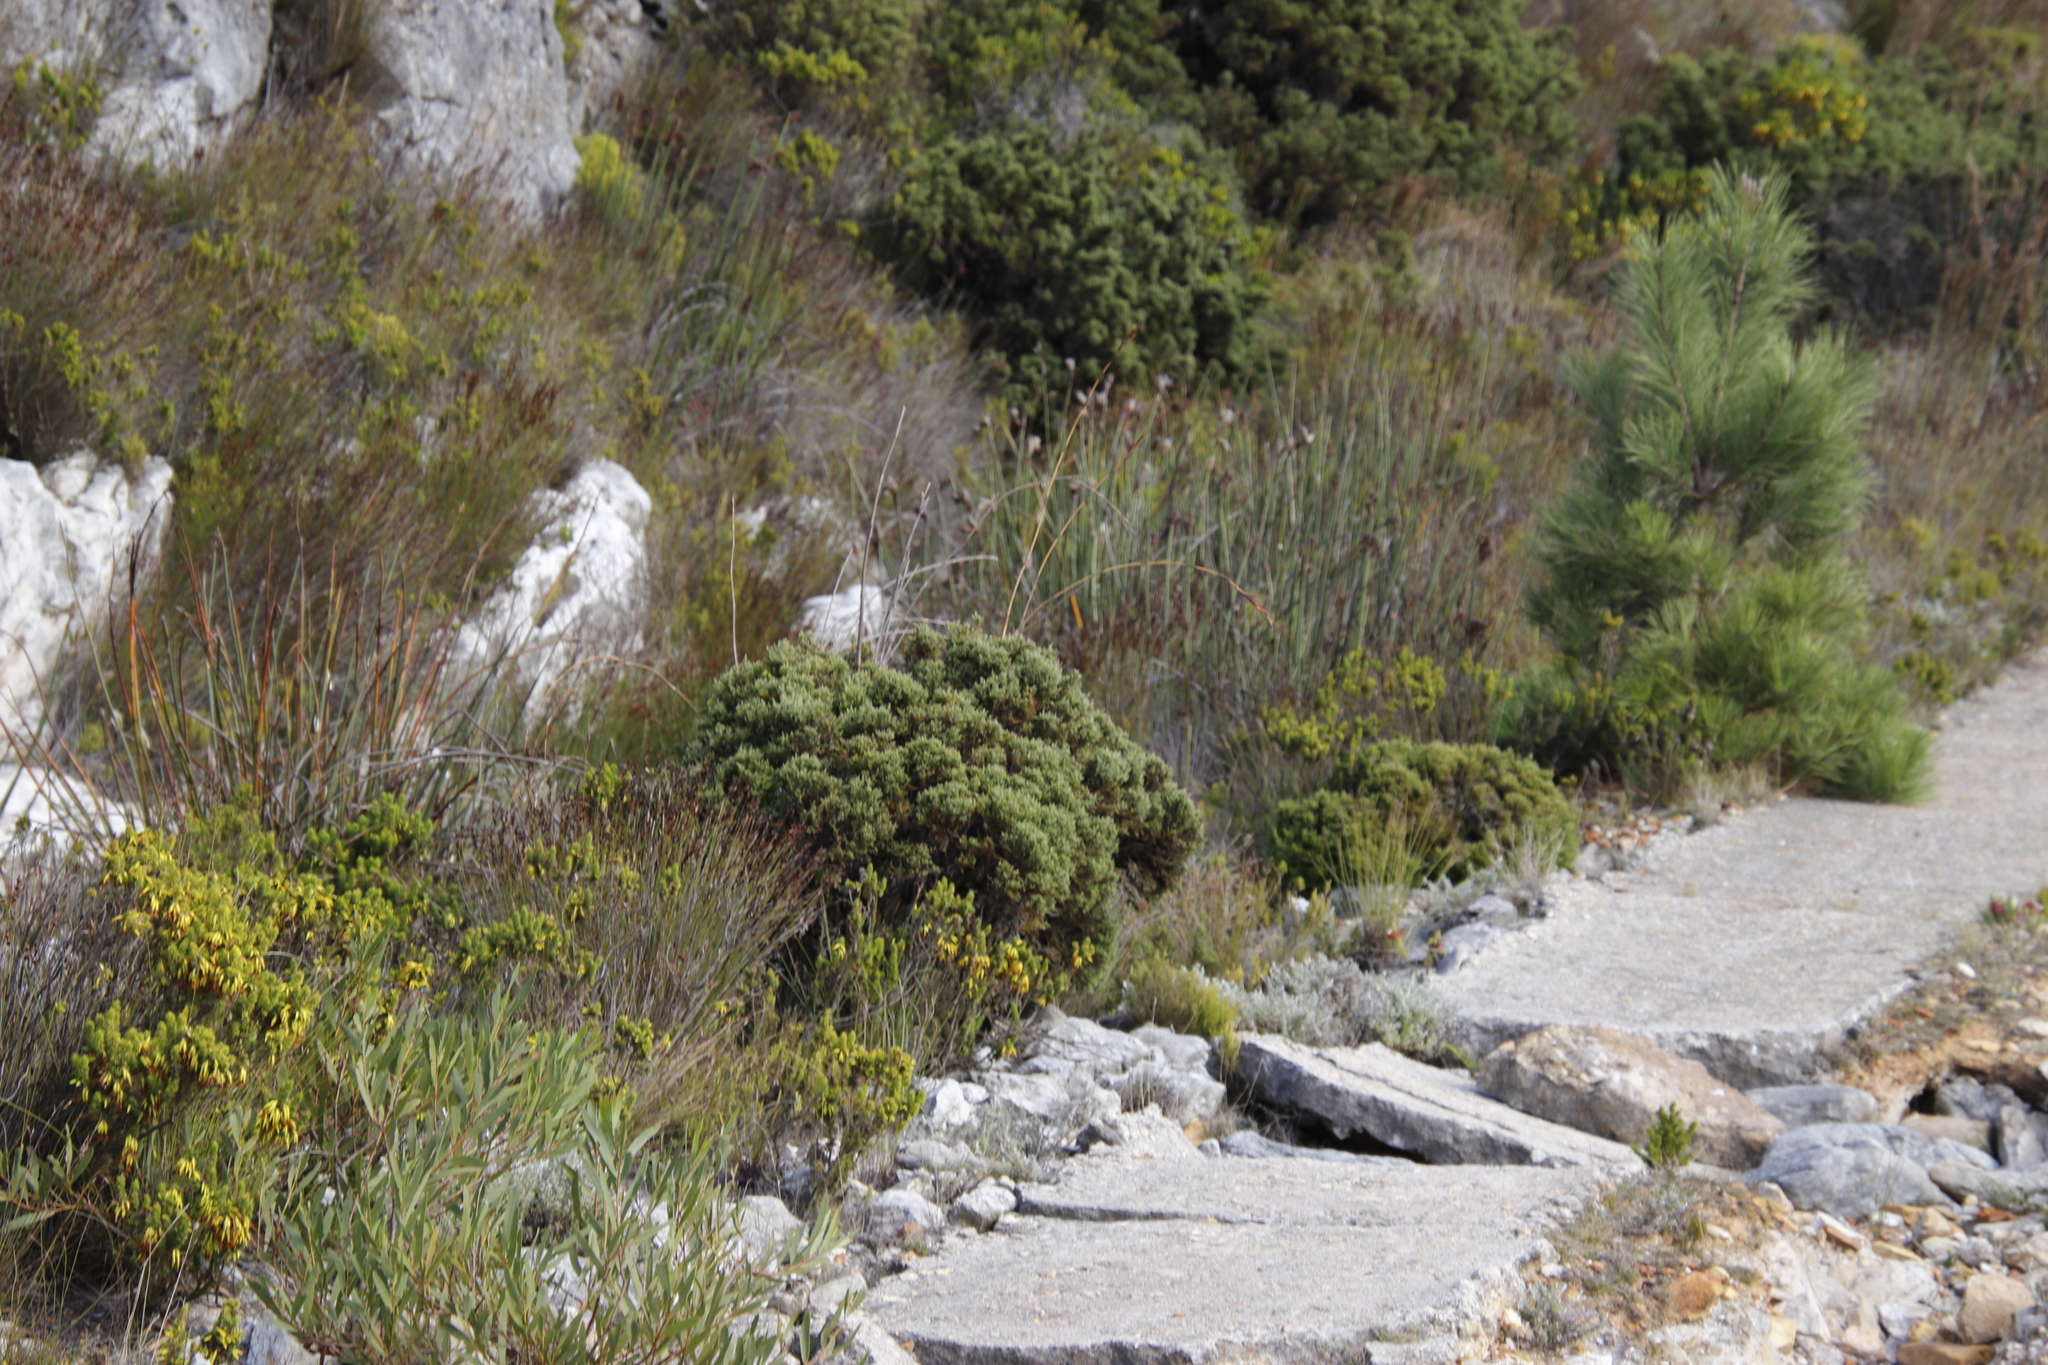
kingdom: Plantae
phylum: Tracheophyta
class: Magnoliopsida
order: Bruniales
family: Bruniaceae
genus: Brunia
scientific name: Brunia microphylla
